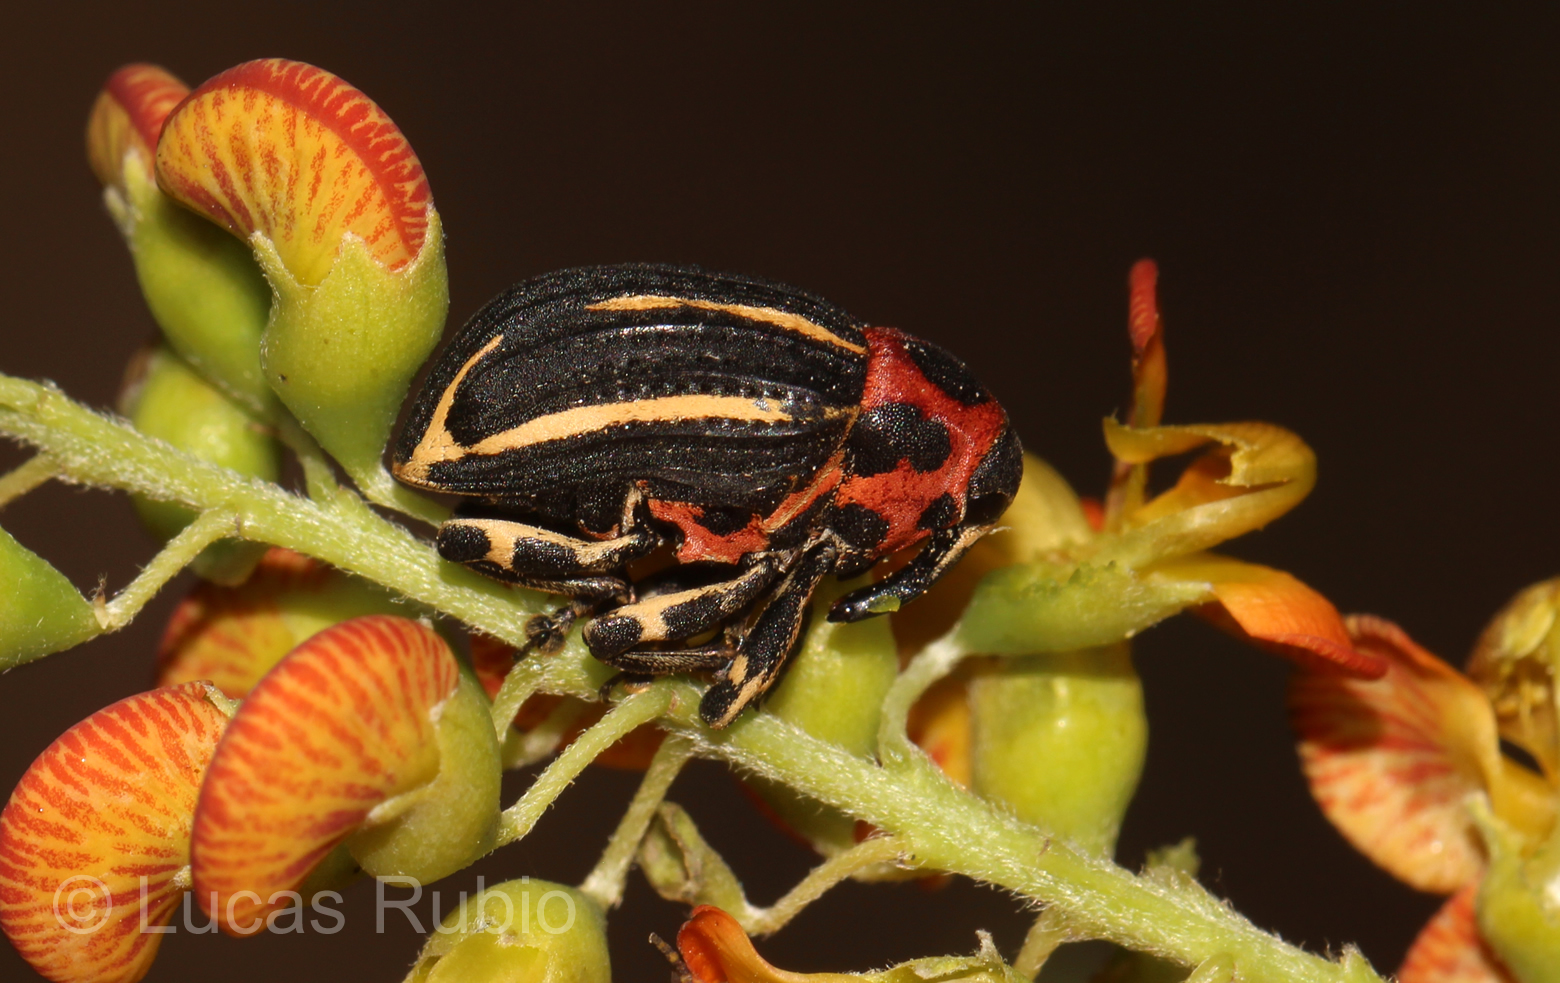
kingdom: Animalia
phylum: Arthropoda
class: Insecta
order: Coleoptera
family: Curculionidae
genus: Neodiplogrammus
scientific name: Neodiplogrammus
